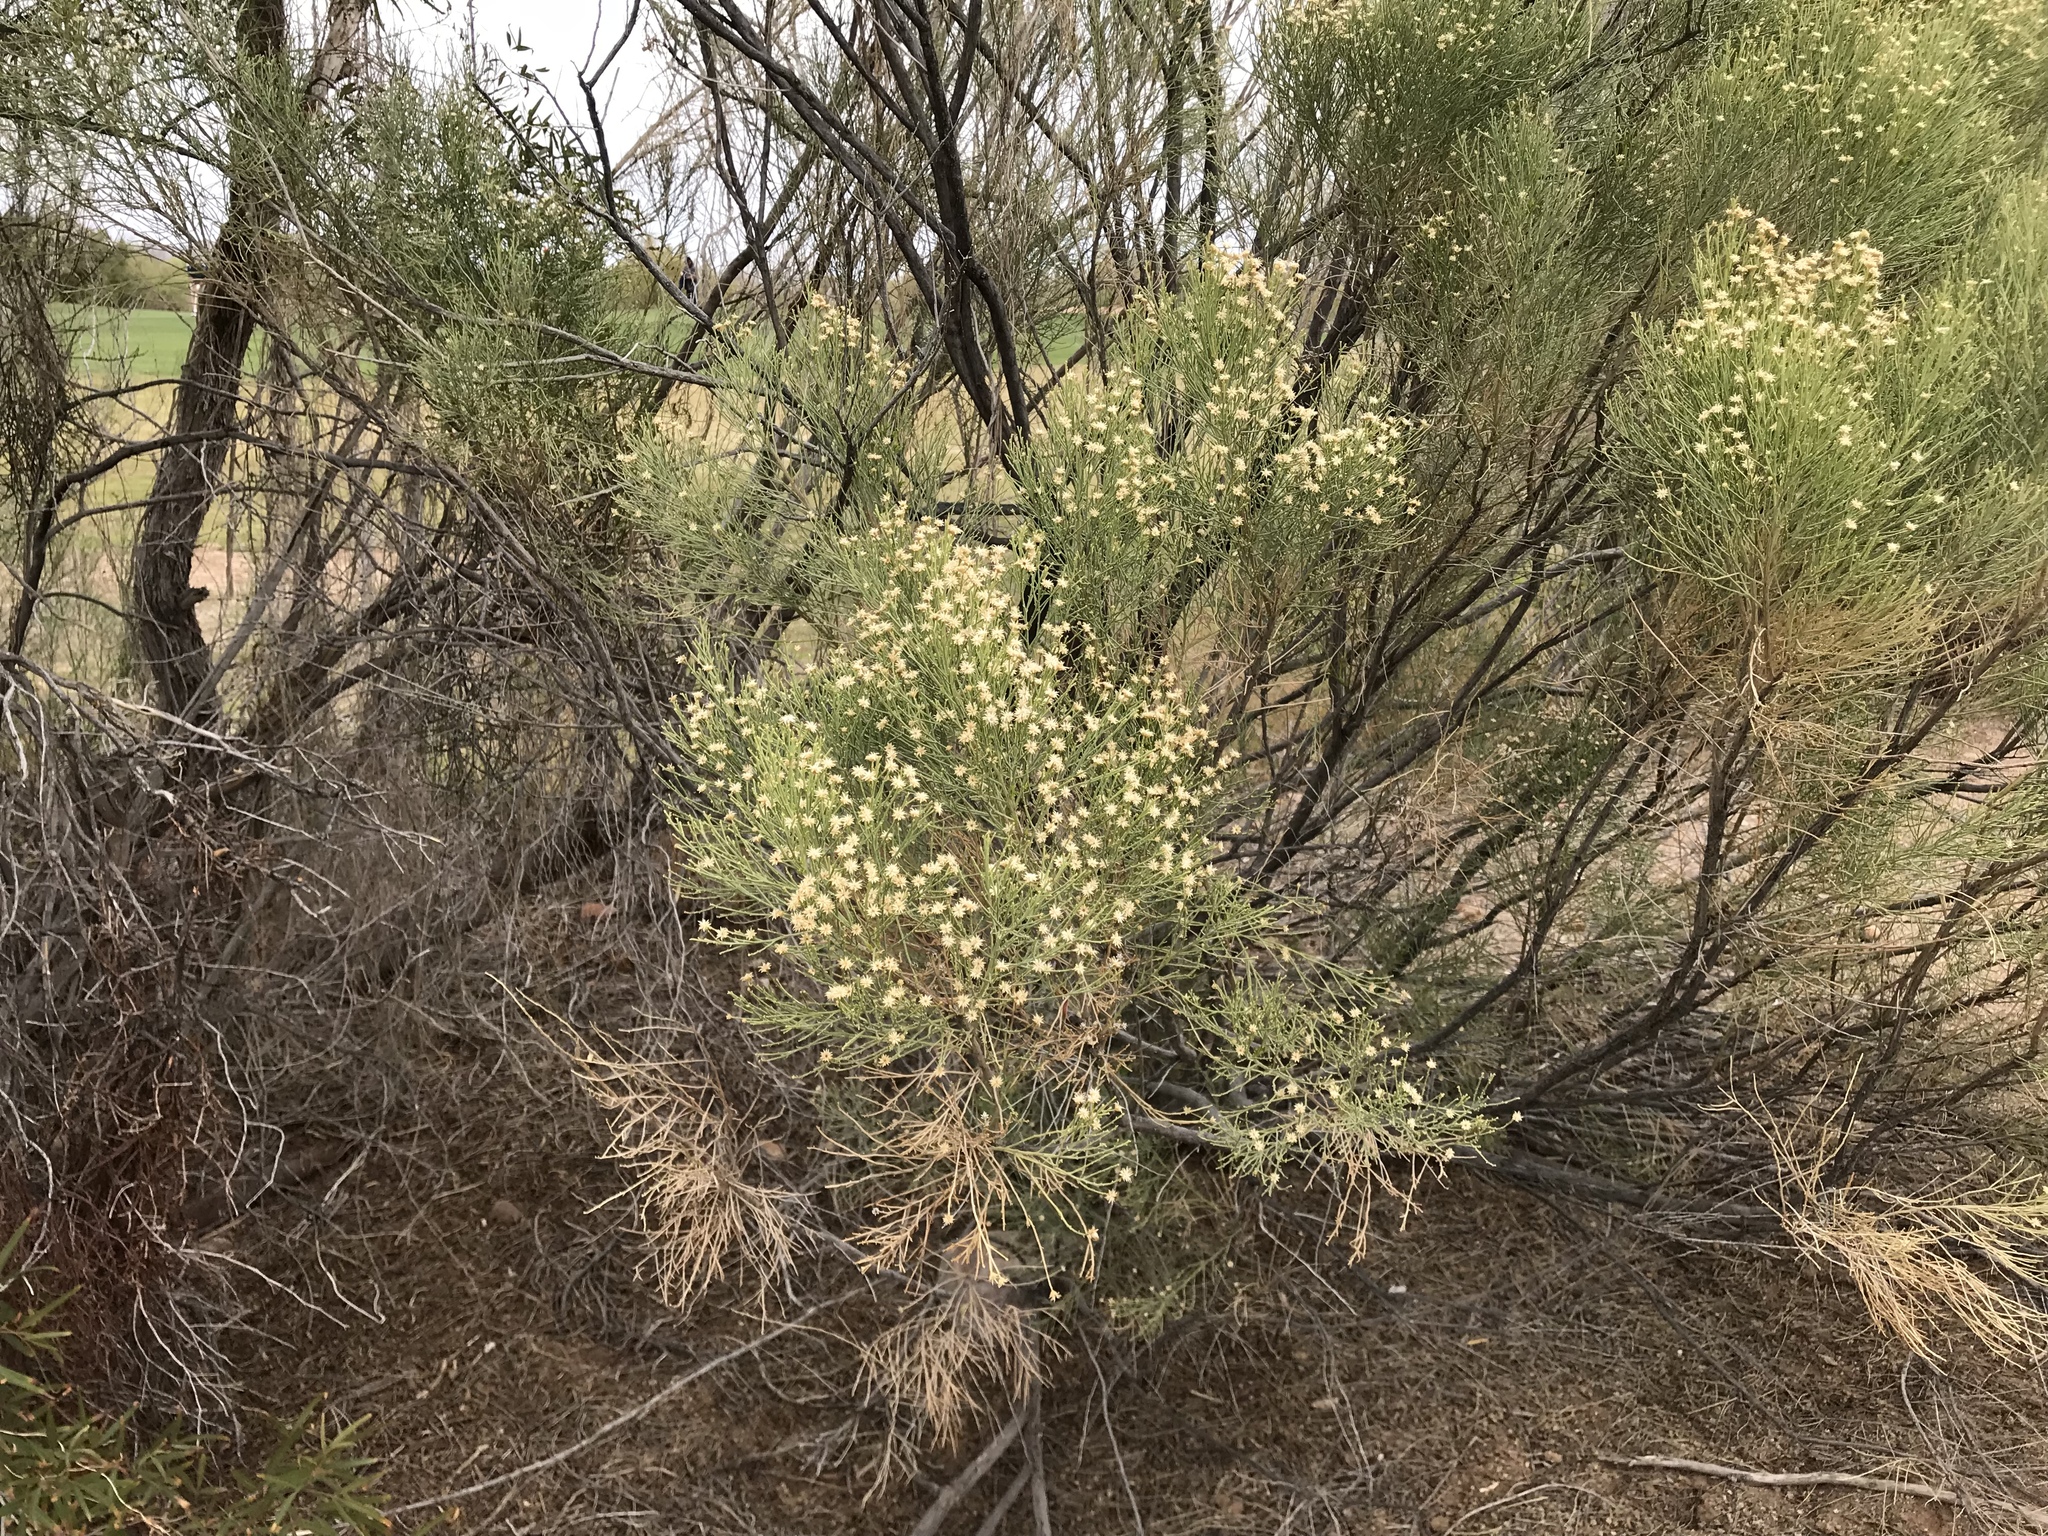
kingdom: Plantae
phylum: Tracheophyta
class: Magnoliopsida
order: Asterales
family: Asteraceae
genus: Baccharis
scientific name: Baccharis sarothroides
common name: Desert-broom
